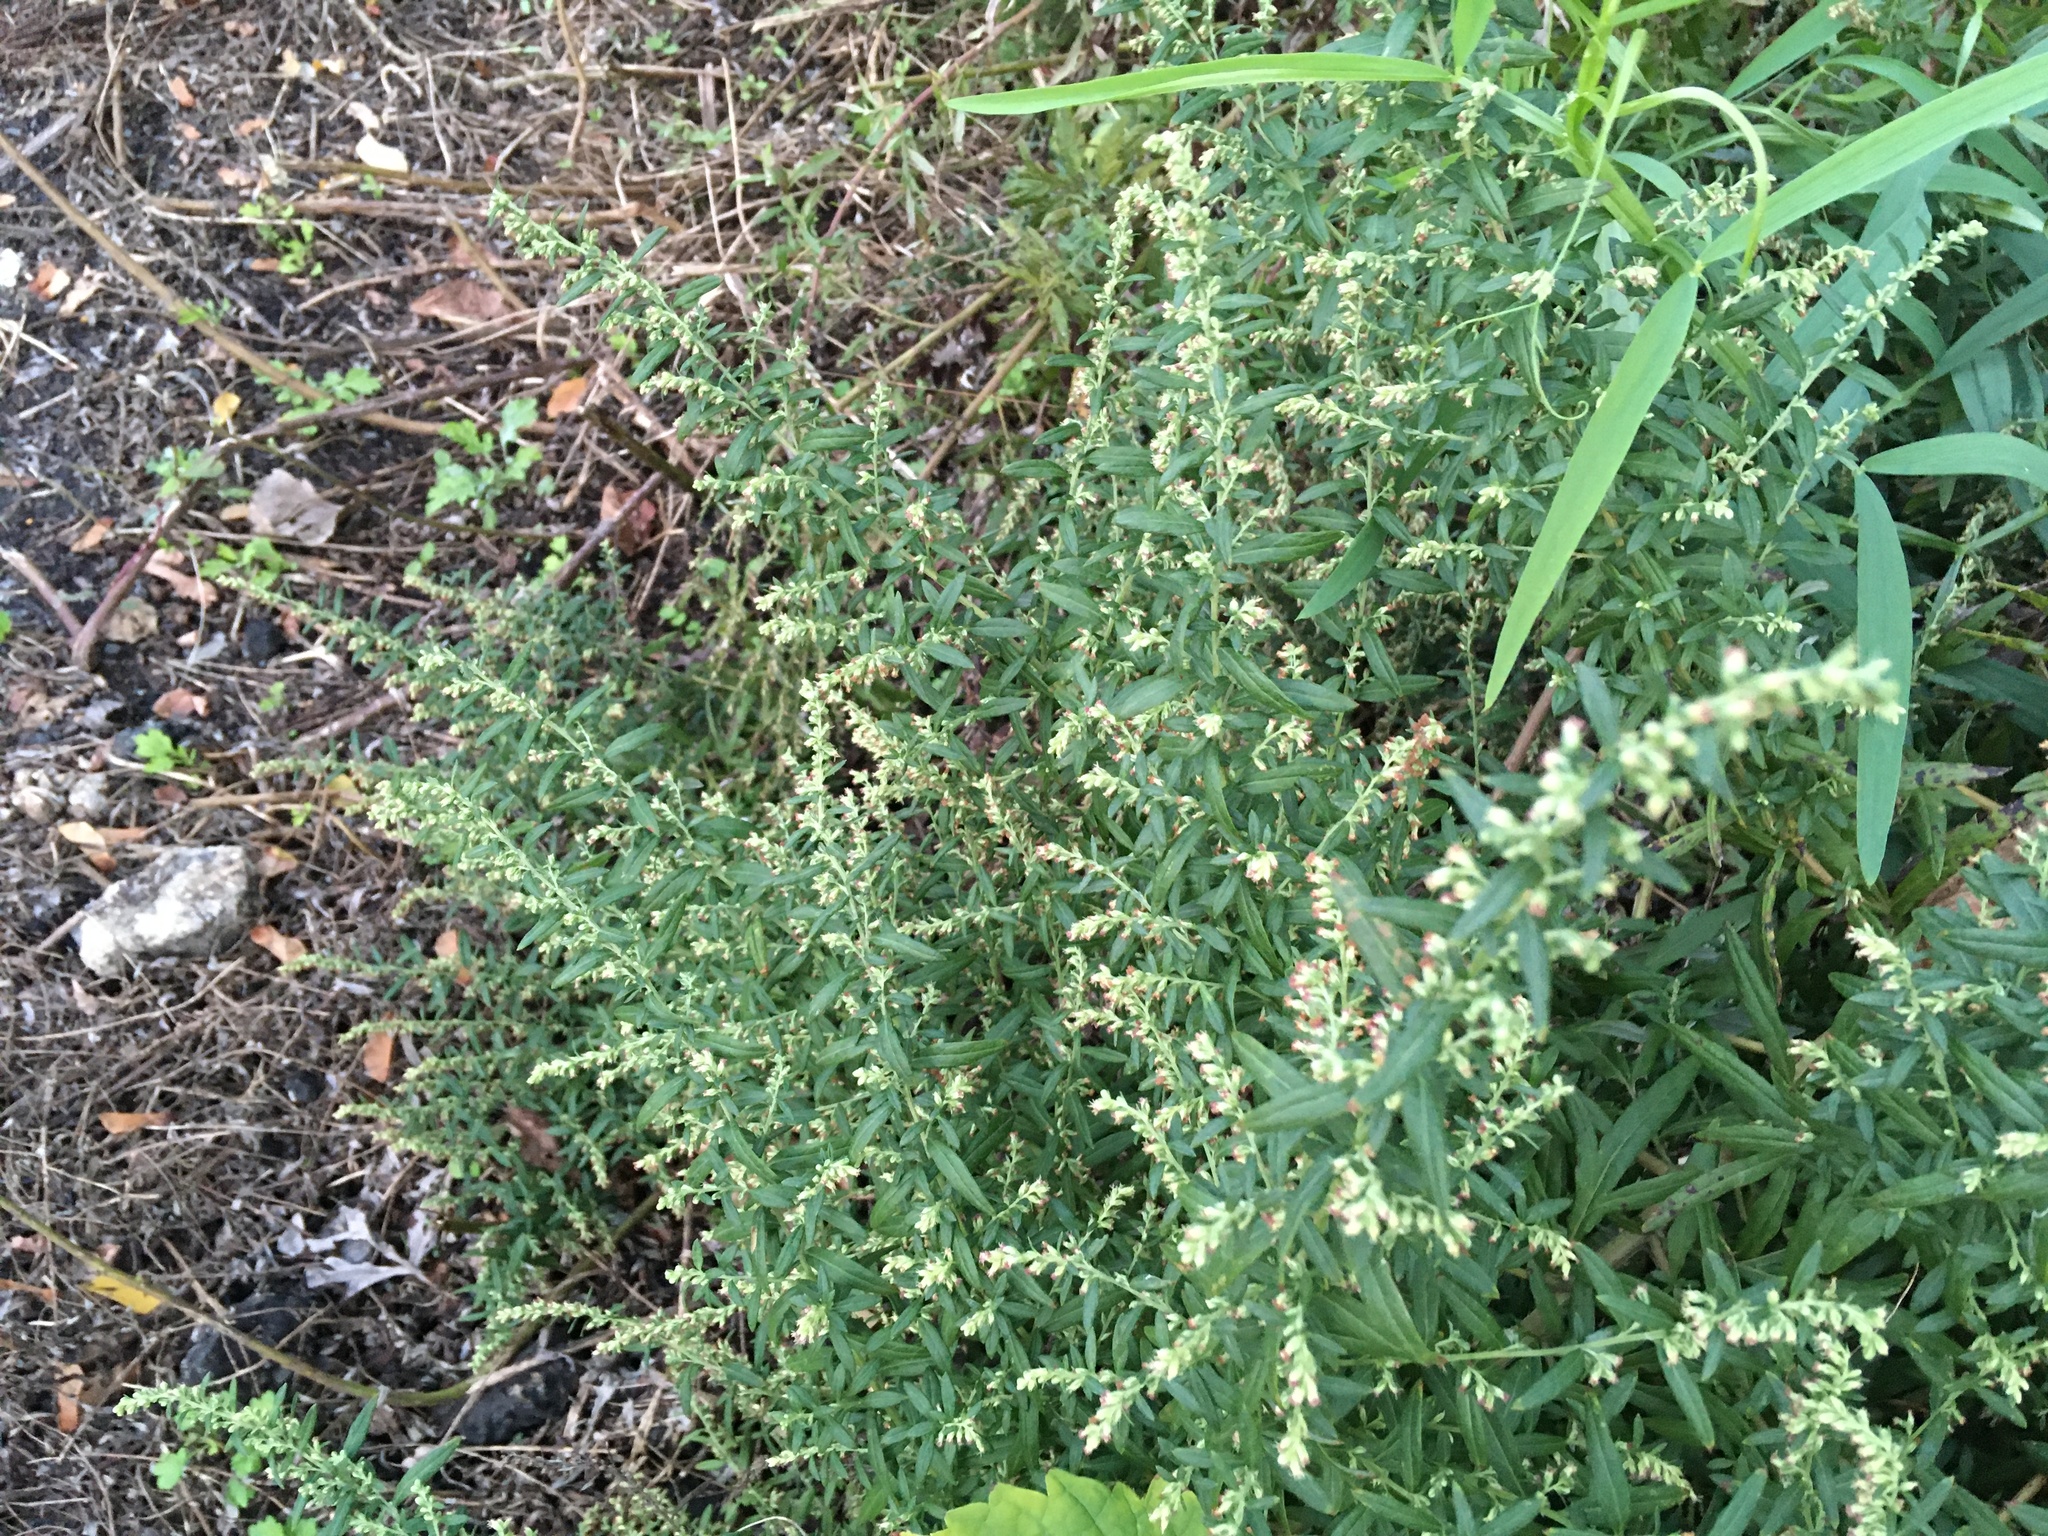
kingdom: Plantae
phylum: Tracheophyta
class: Magnoliopsida
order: Asterales
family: Asteraceae
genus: Artemisia
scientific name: Artemisia vulgaris
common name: Mugwort
